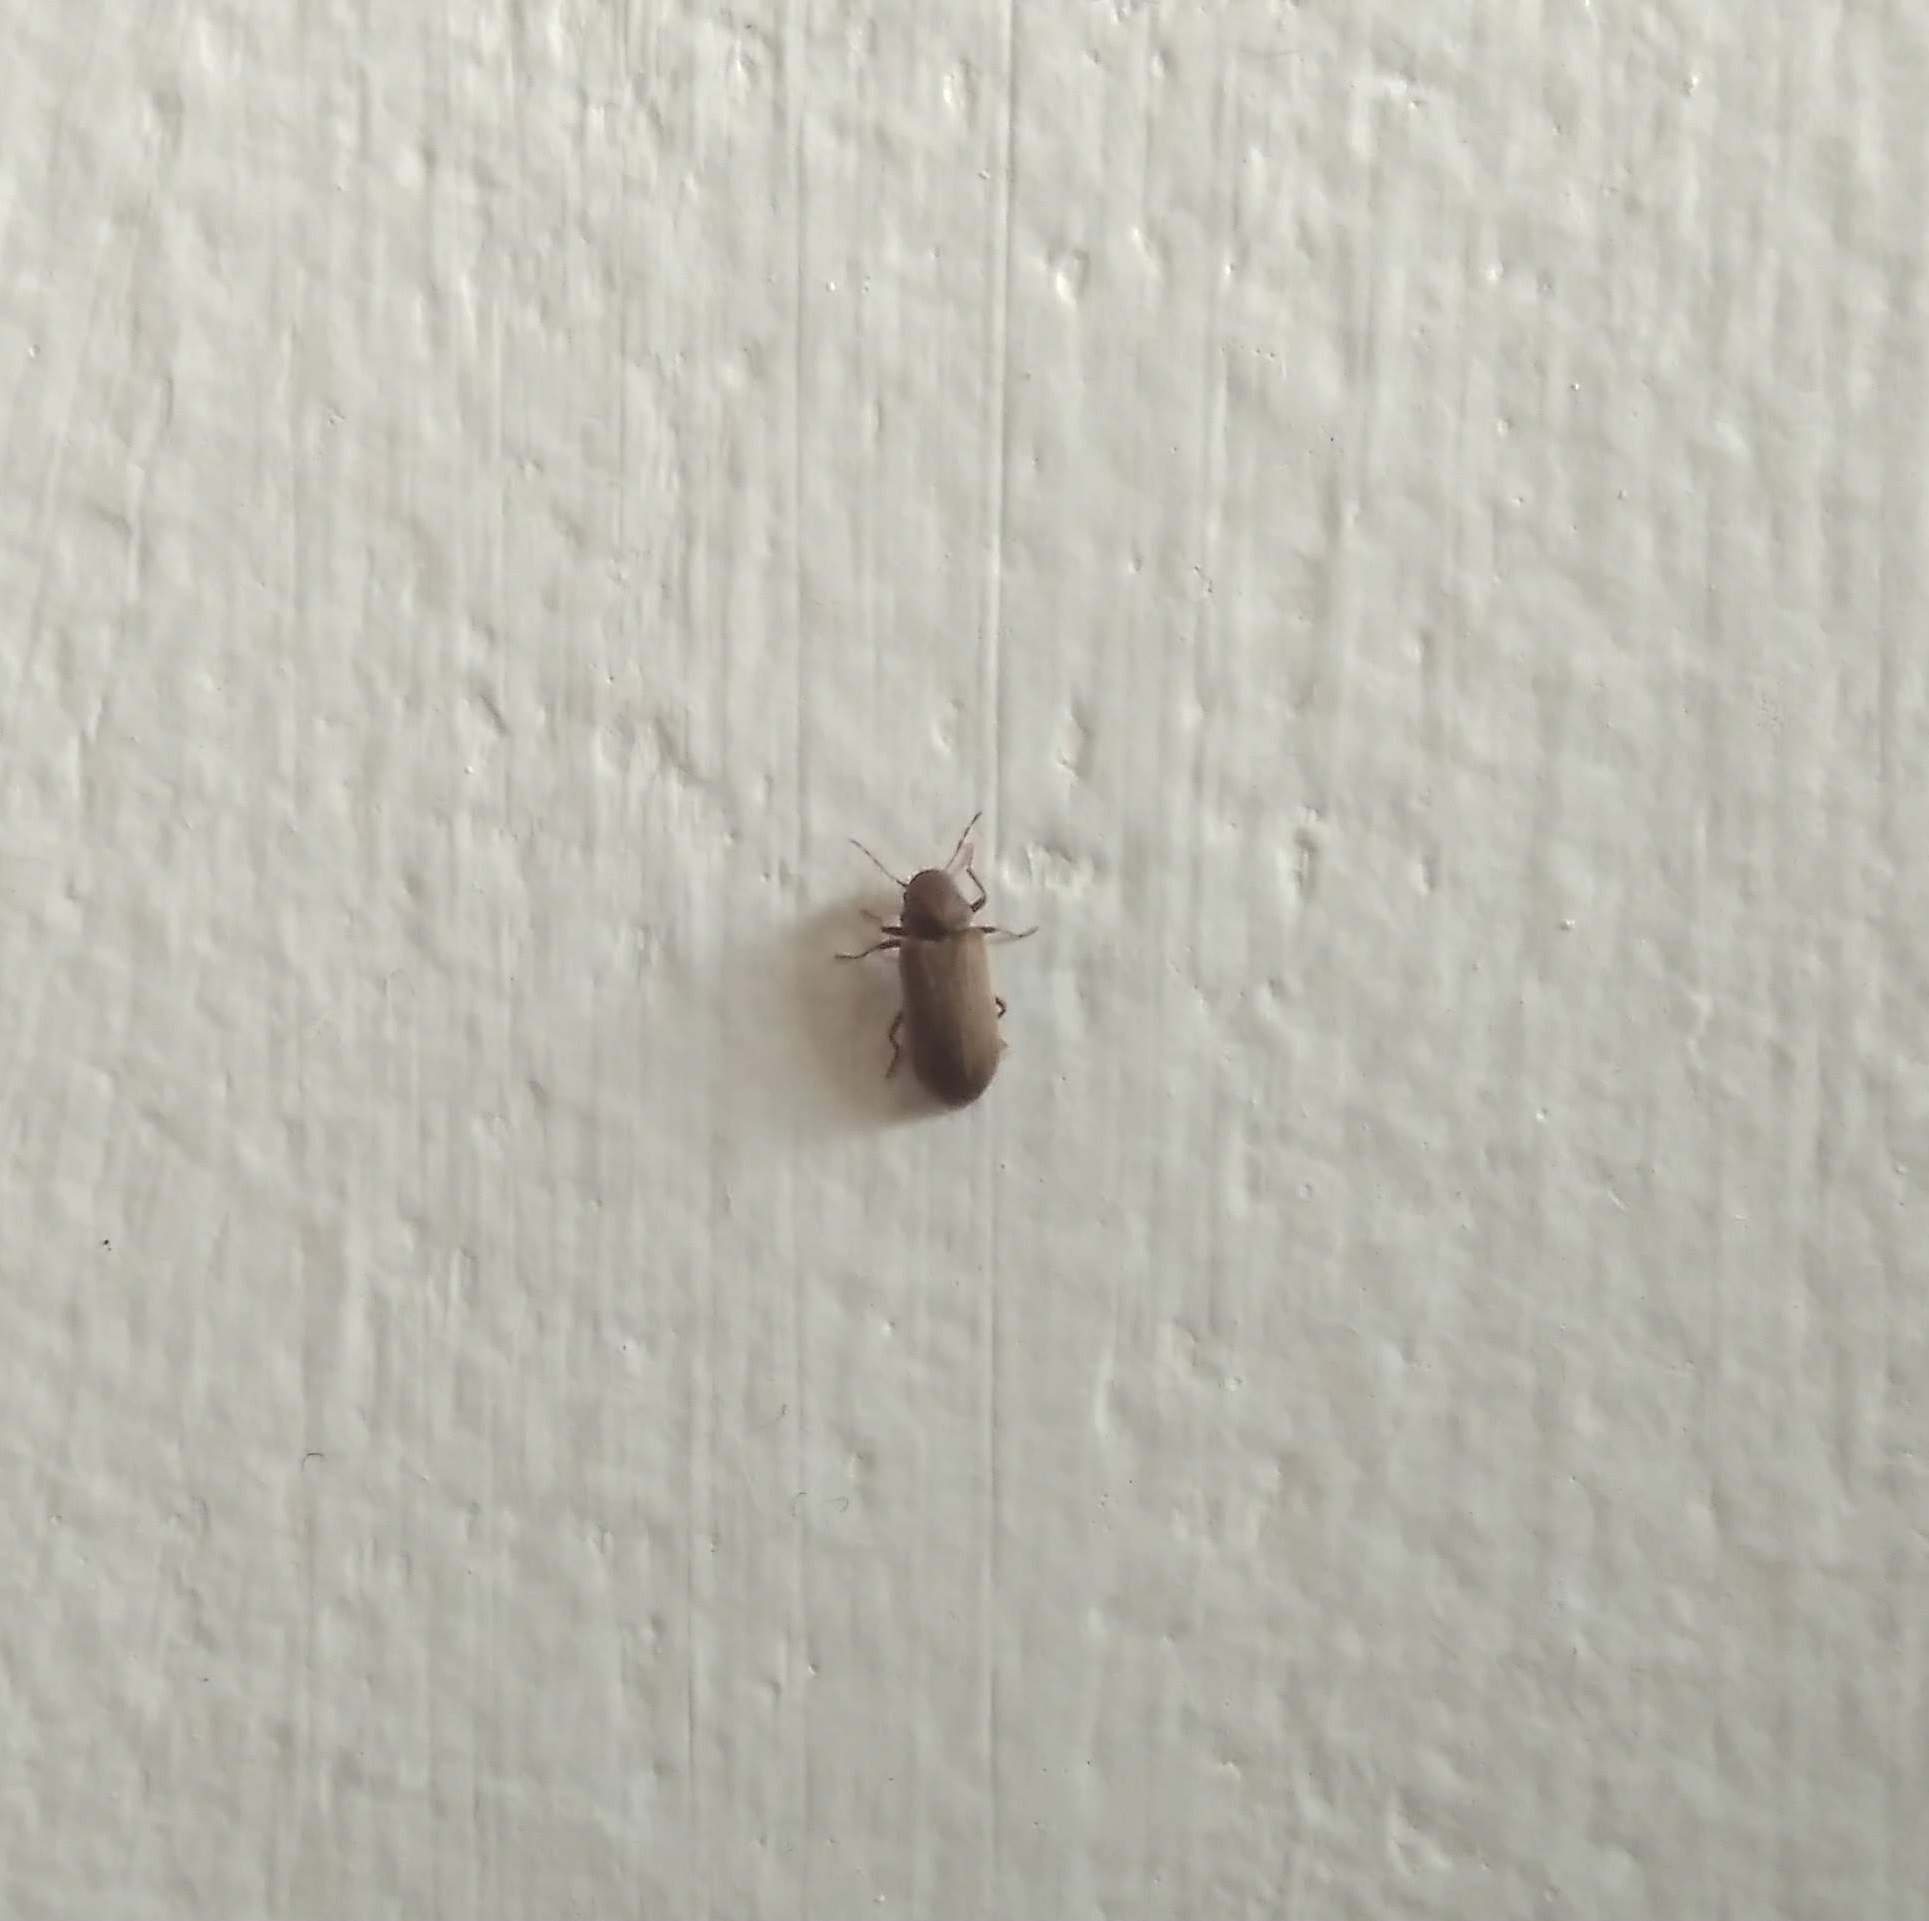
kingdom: Animalia
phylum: Arthropoda
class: Insecta
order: Coleoptera
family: Anobiidae
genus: Anobium
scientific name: Anobium punctatum
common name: Furniture beetle
